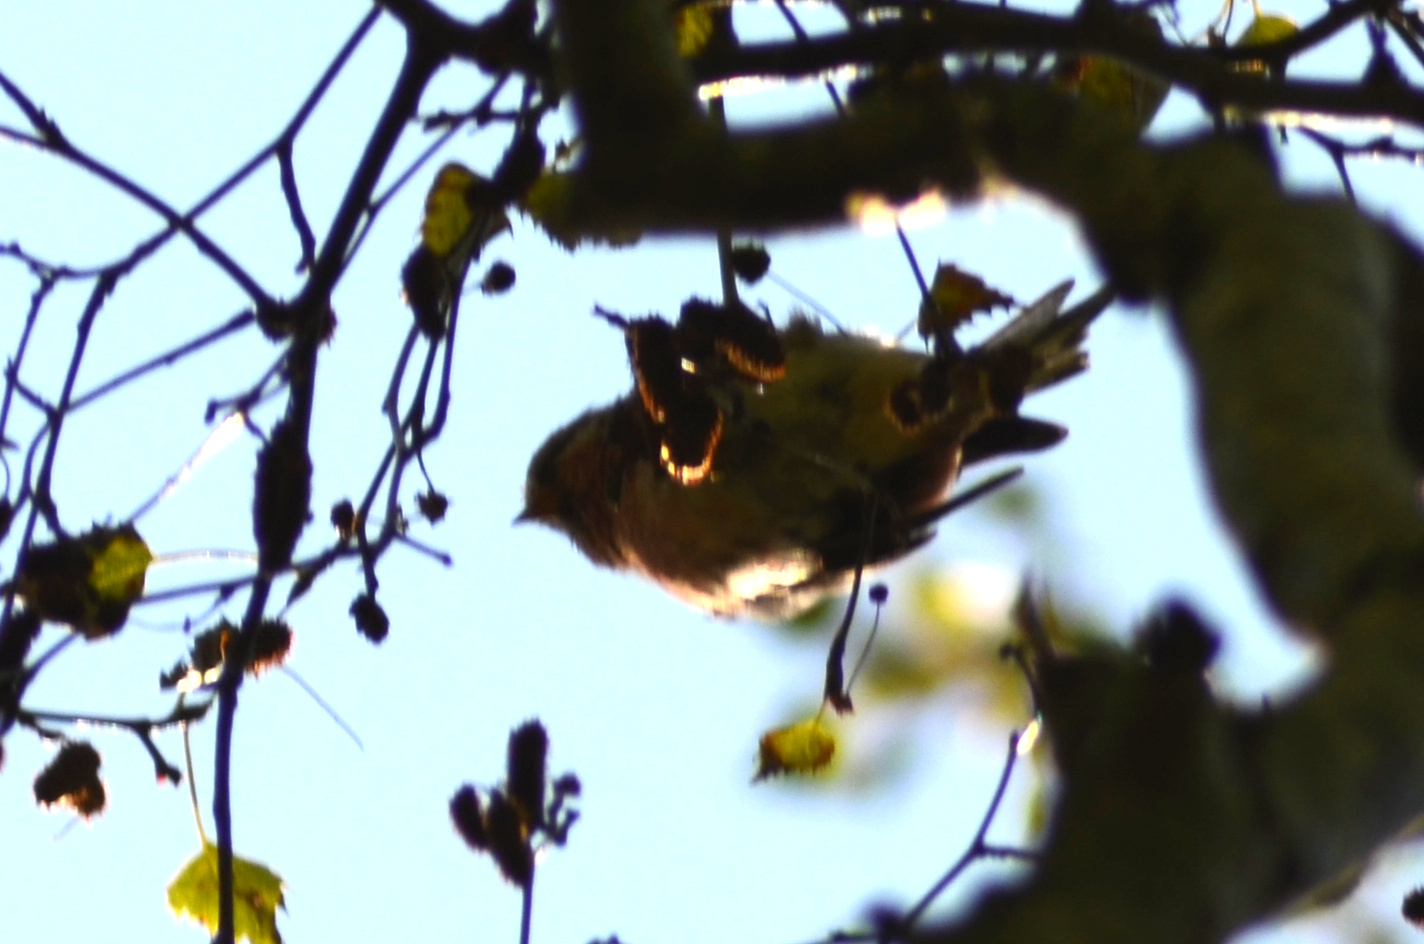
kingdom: Animalia
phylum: Chordata
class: Aves
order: Passeriformes
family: Fringillidae
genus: Acanthis
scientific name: Acanthis flammea
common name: Common redpoll
